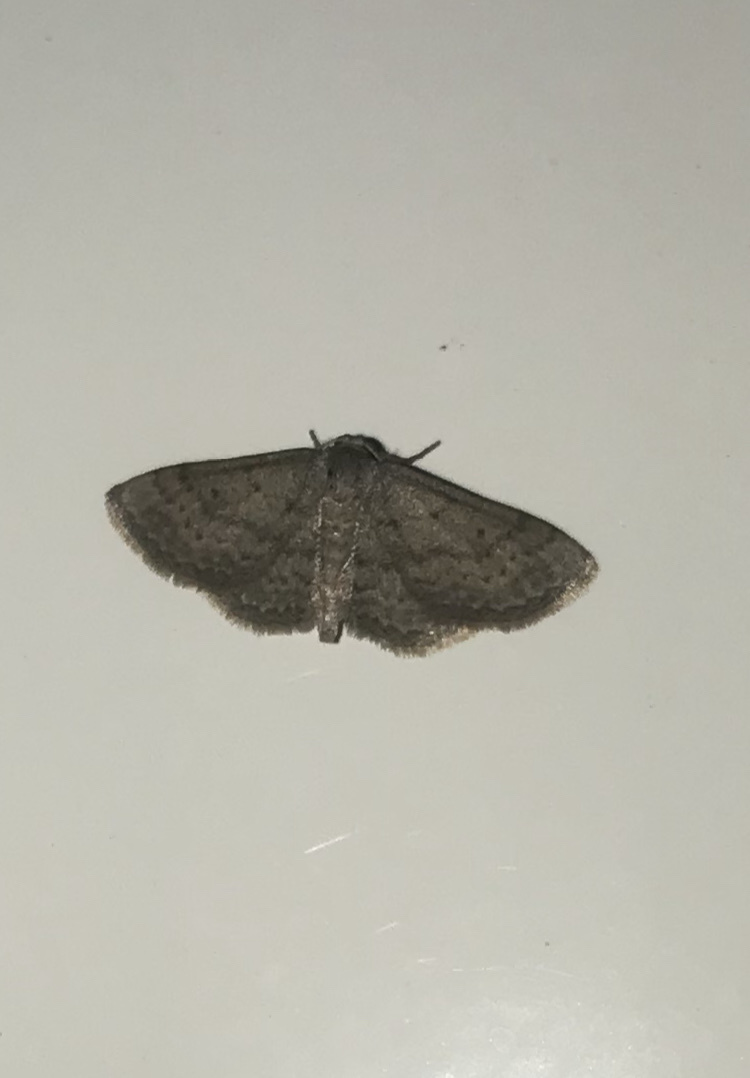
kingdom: Animalia
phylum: Arthropoda
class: Insecta
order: Lepidoptera
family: Geometridae
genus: Lobocleta
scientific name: Lobocleta ossularia
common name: Drab brown wave
